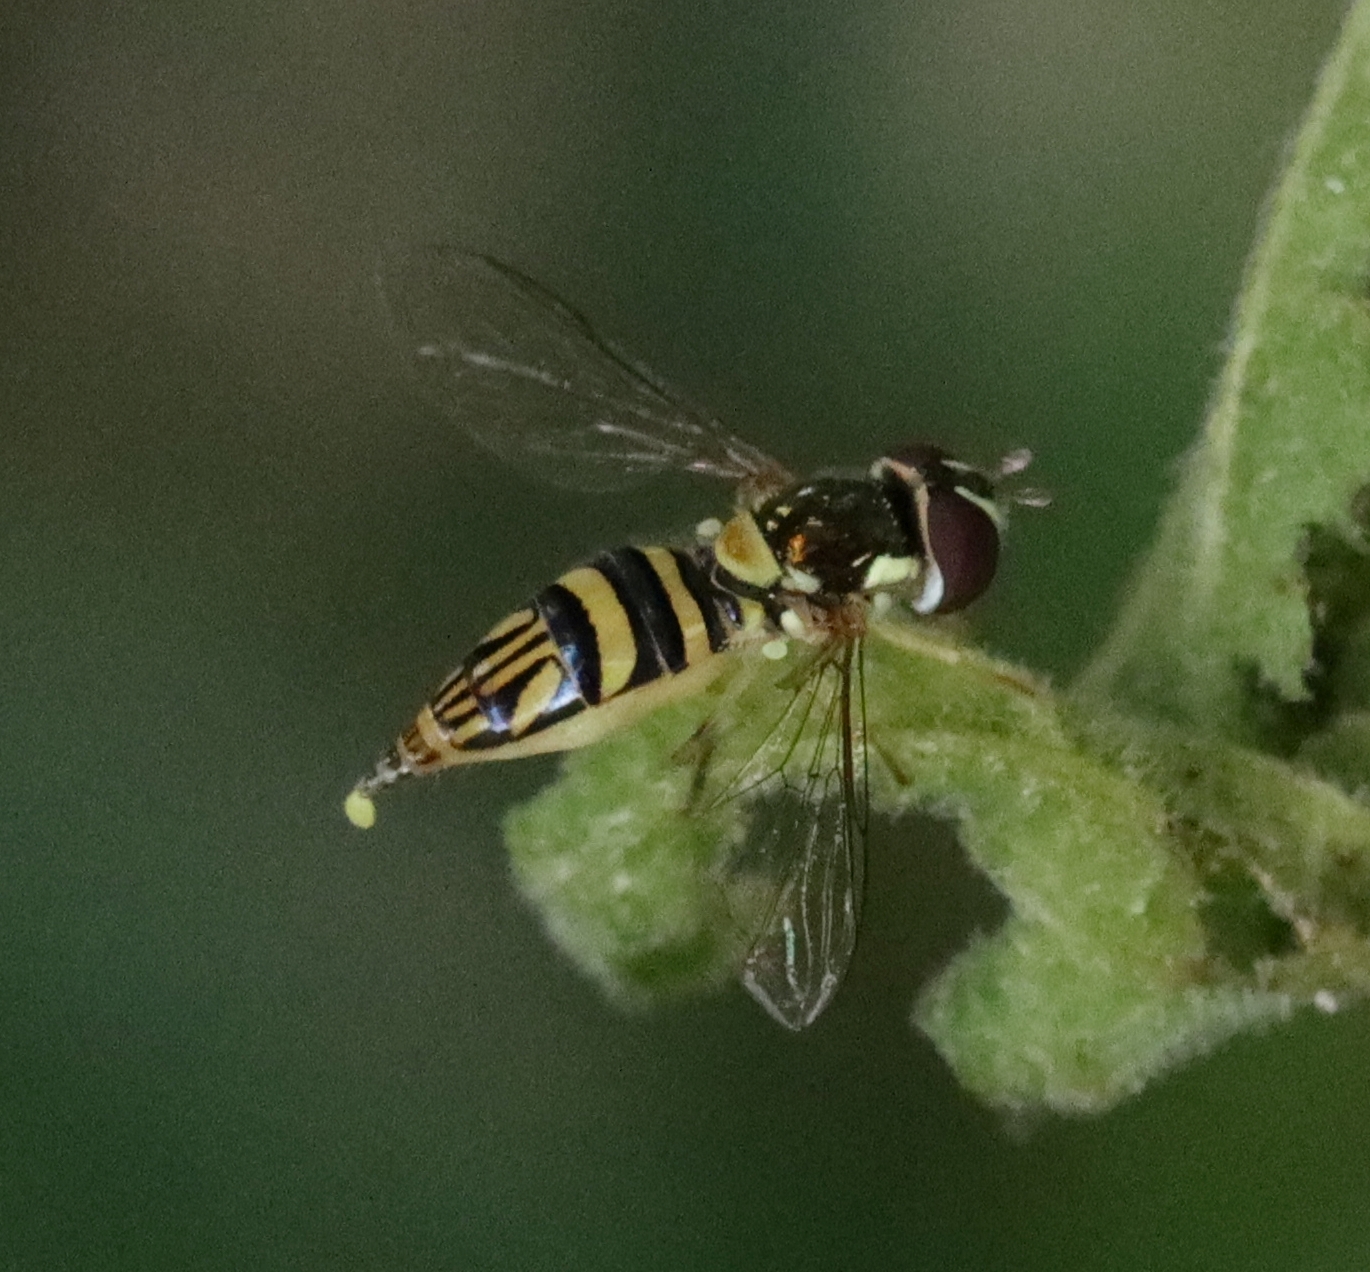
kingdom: Animalia
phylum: Arthropoda
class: Insecta
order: Diptera
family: Syrphidae
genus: Allograpta
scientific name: Allograpta obliqua
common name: Common oblique syrphid
